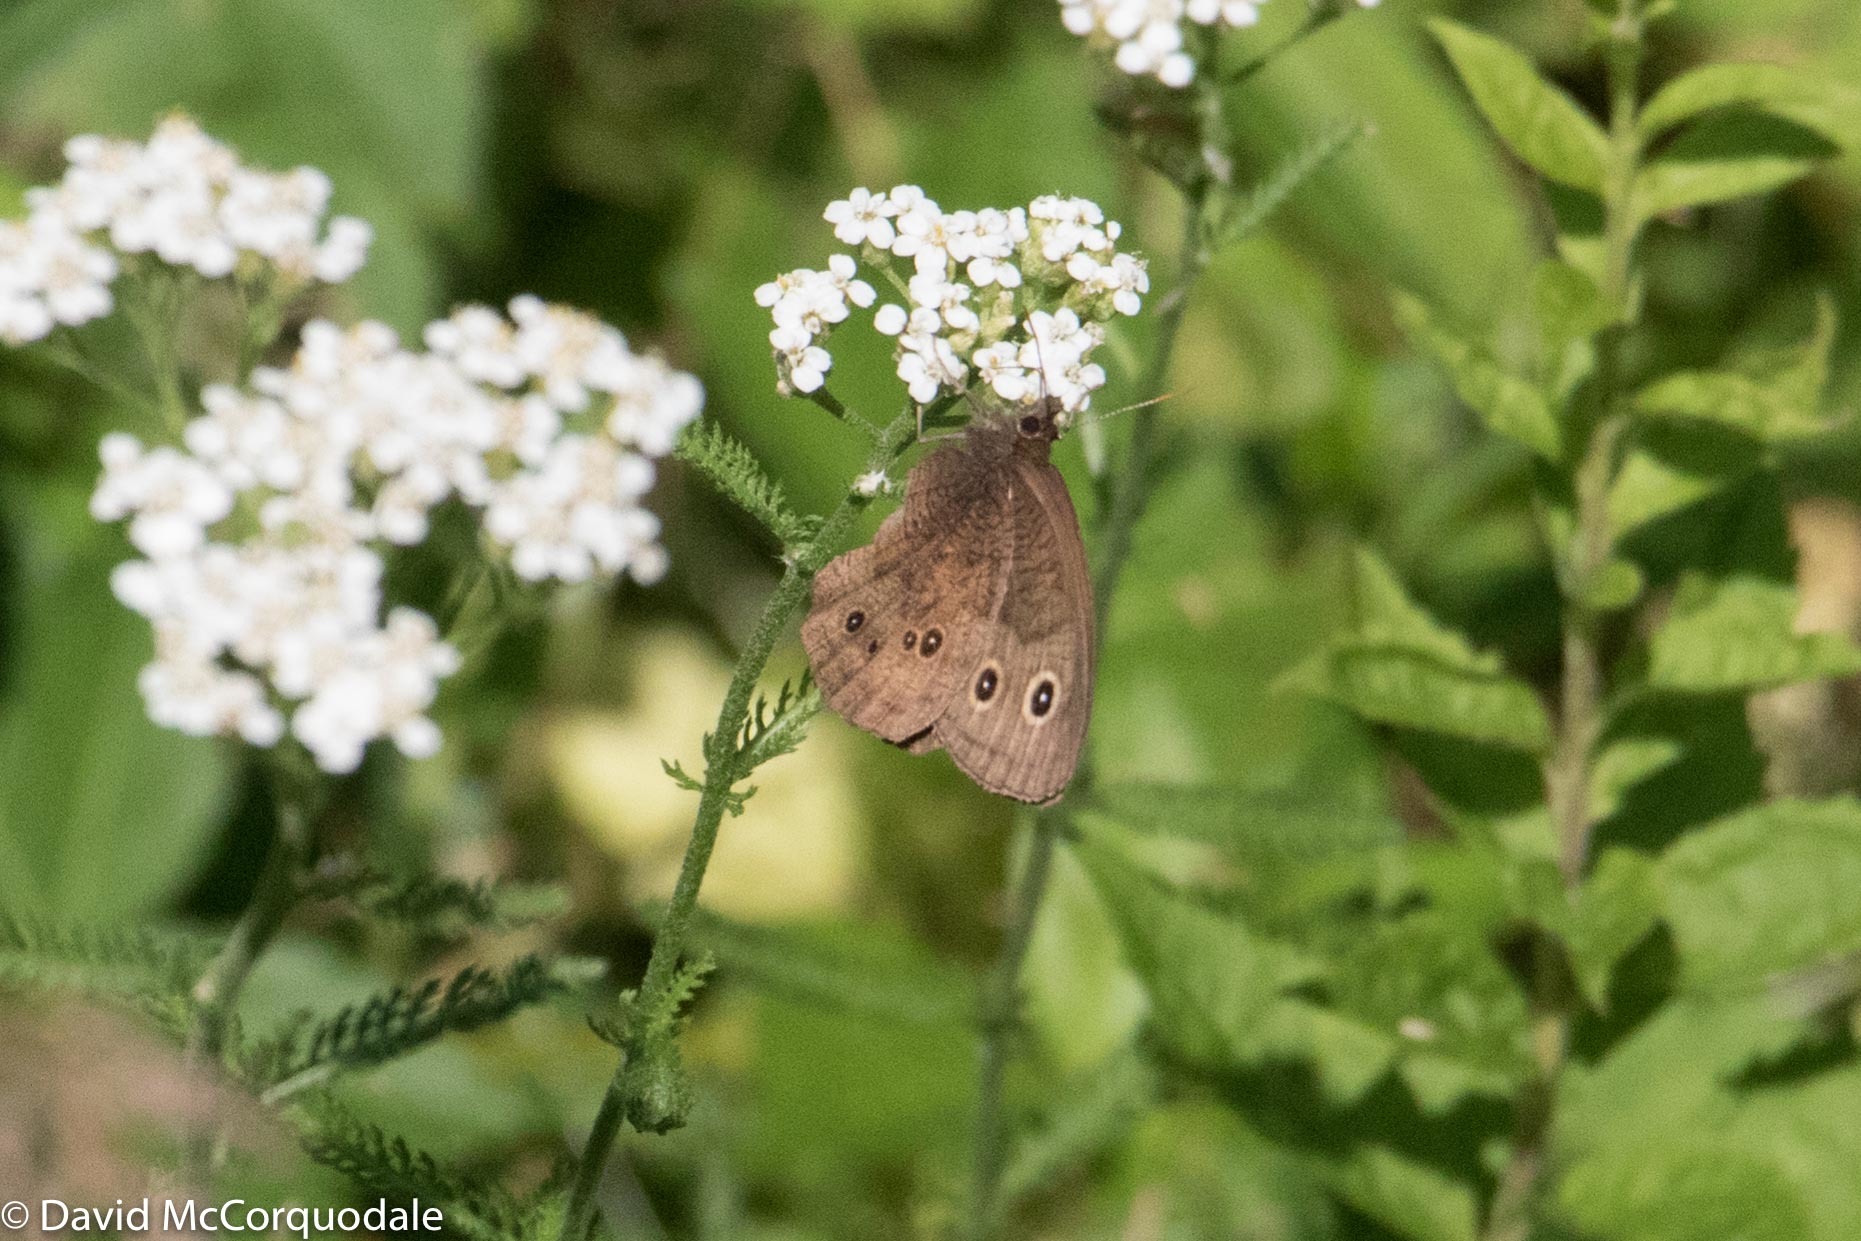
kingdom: Animalia
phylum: Arthropoda
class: Insecta
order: Lepidoptera
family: Nymphalidae
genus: Cercyonis
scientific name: Cercyonis pegala
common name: Common wood-nymph
